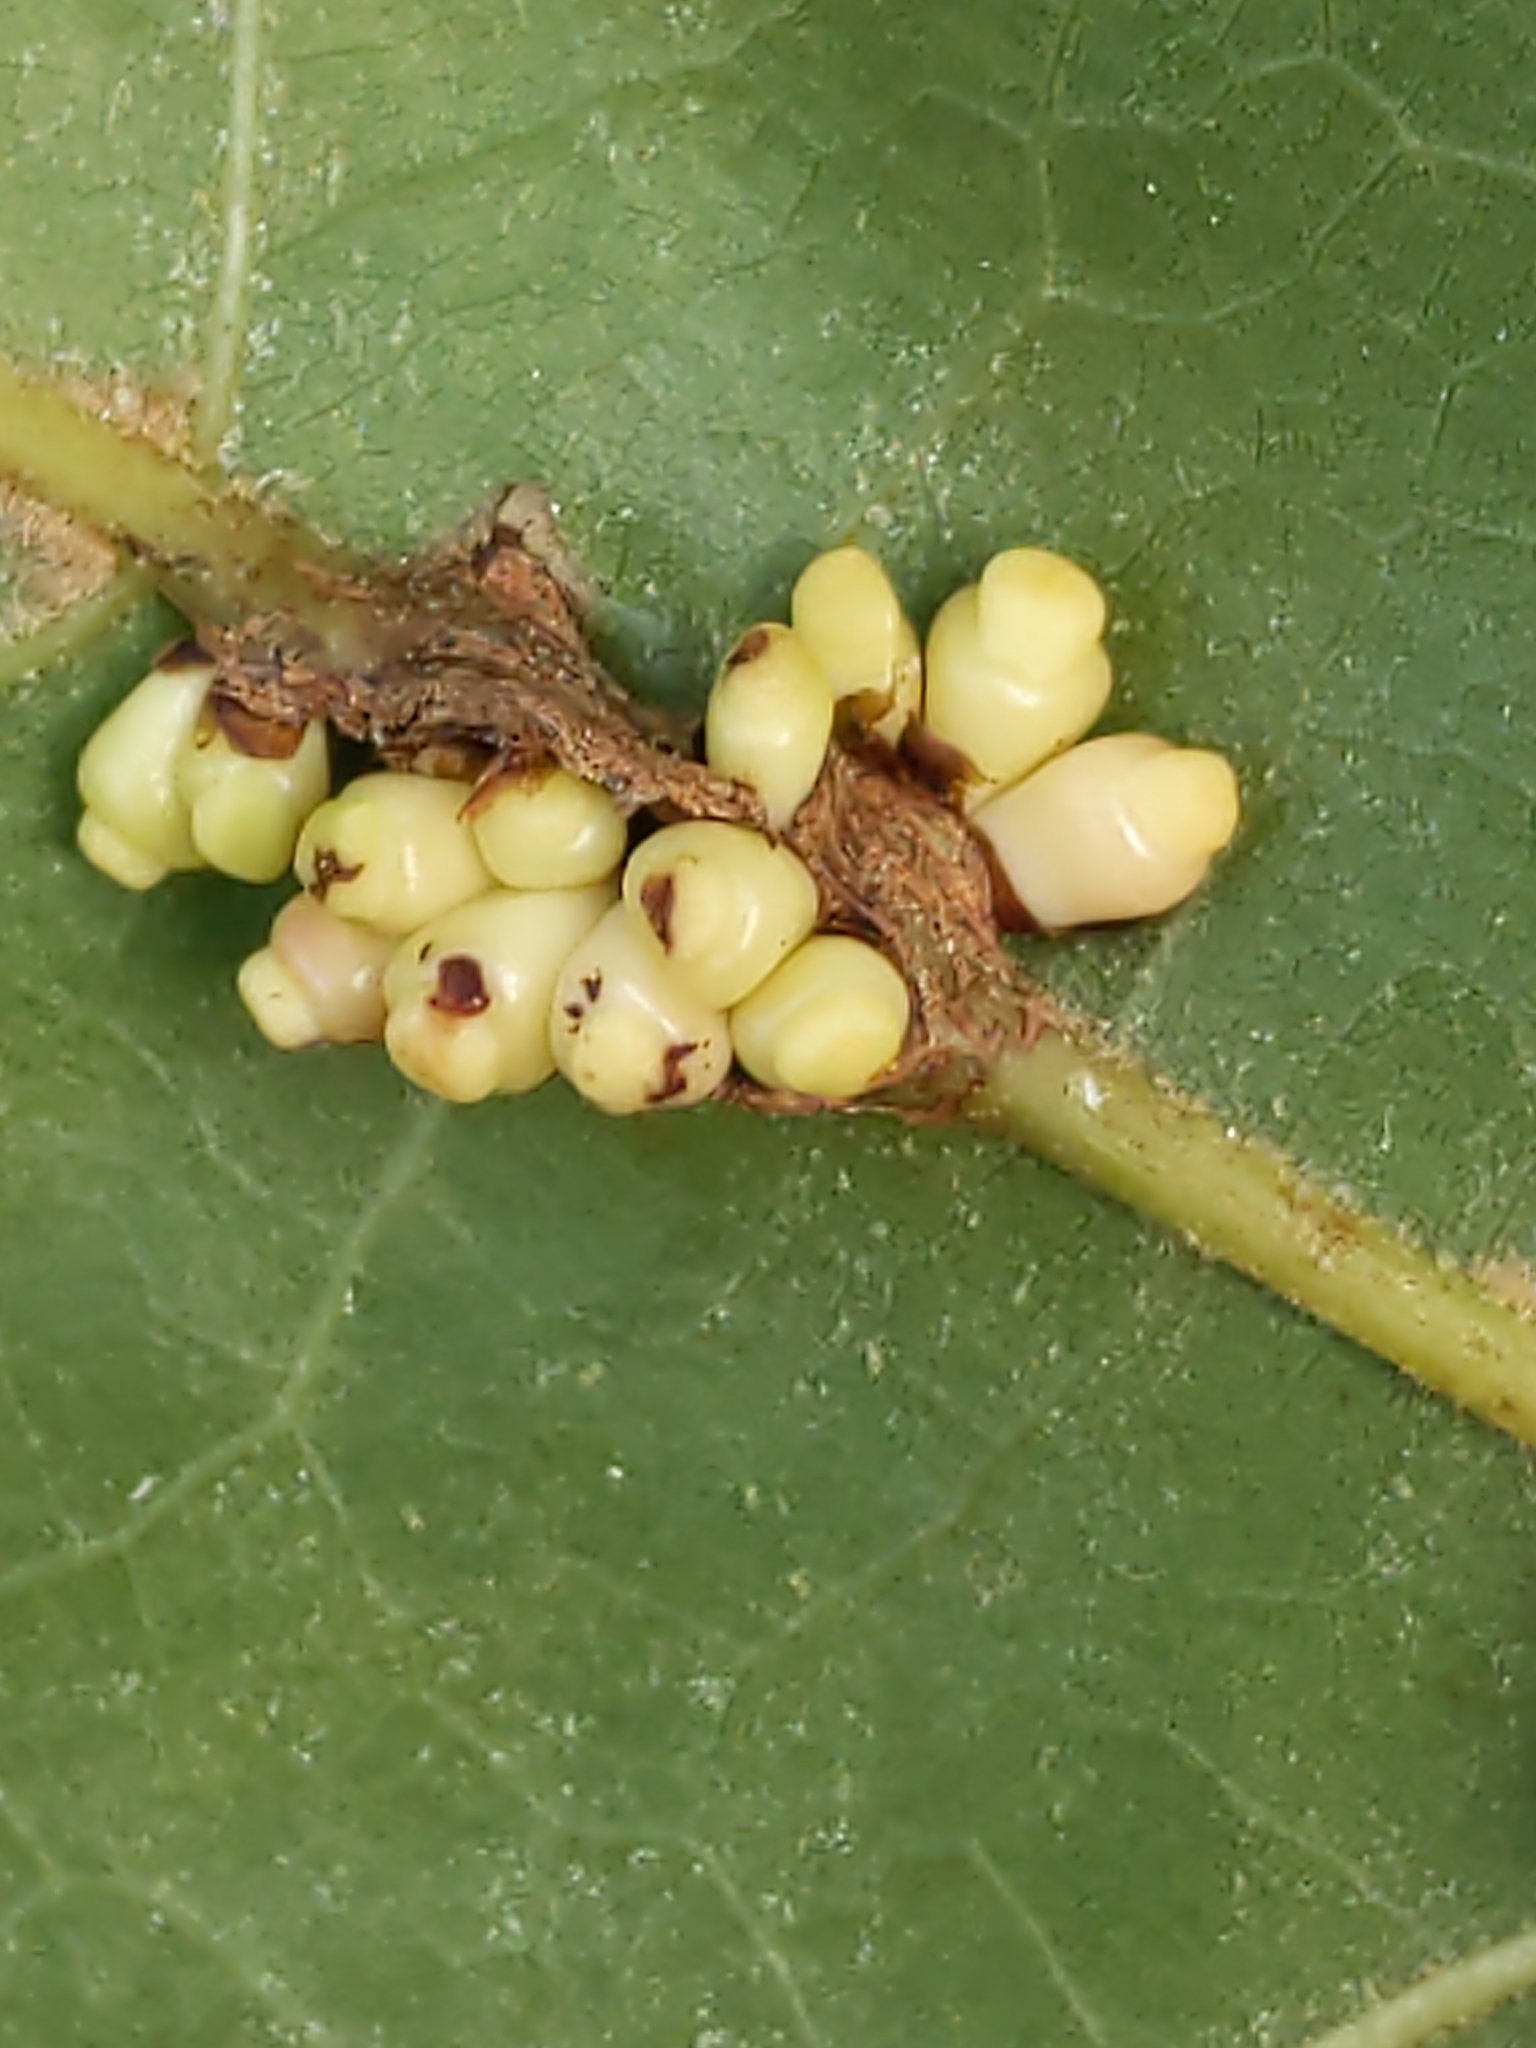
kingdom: Animalia
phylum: Arthropoda
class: Insecta
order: Hymenoptera
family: Cynipidae
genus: Kokkocynips
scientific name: Kokkocynips decidua
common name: Oak wheat gall
